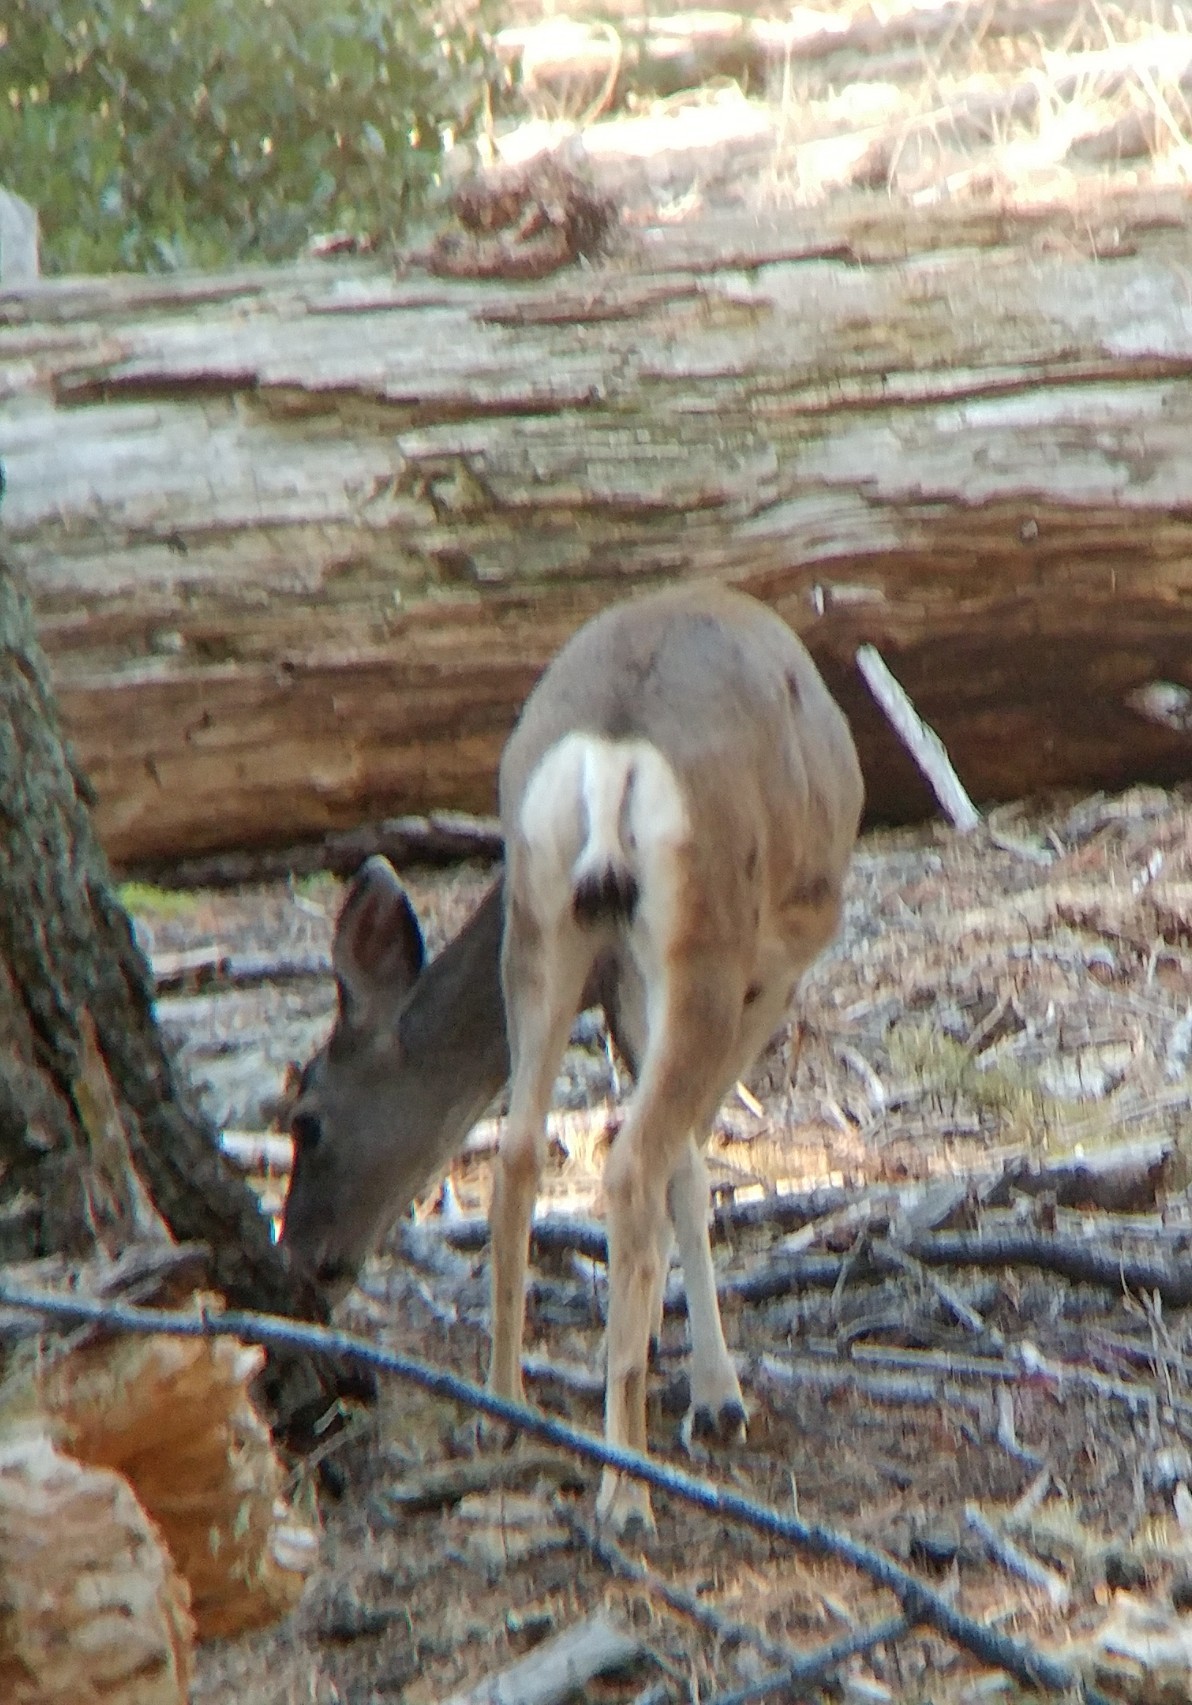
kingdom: Animalia
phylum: Chordata
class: Mammalia
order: Artiodactyla
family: Cervidae
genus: Odocoileus
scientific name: Odocoileus hemionus
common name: Mule deer
